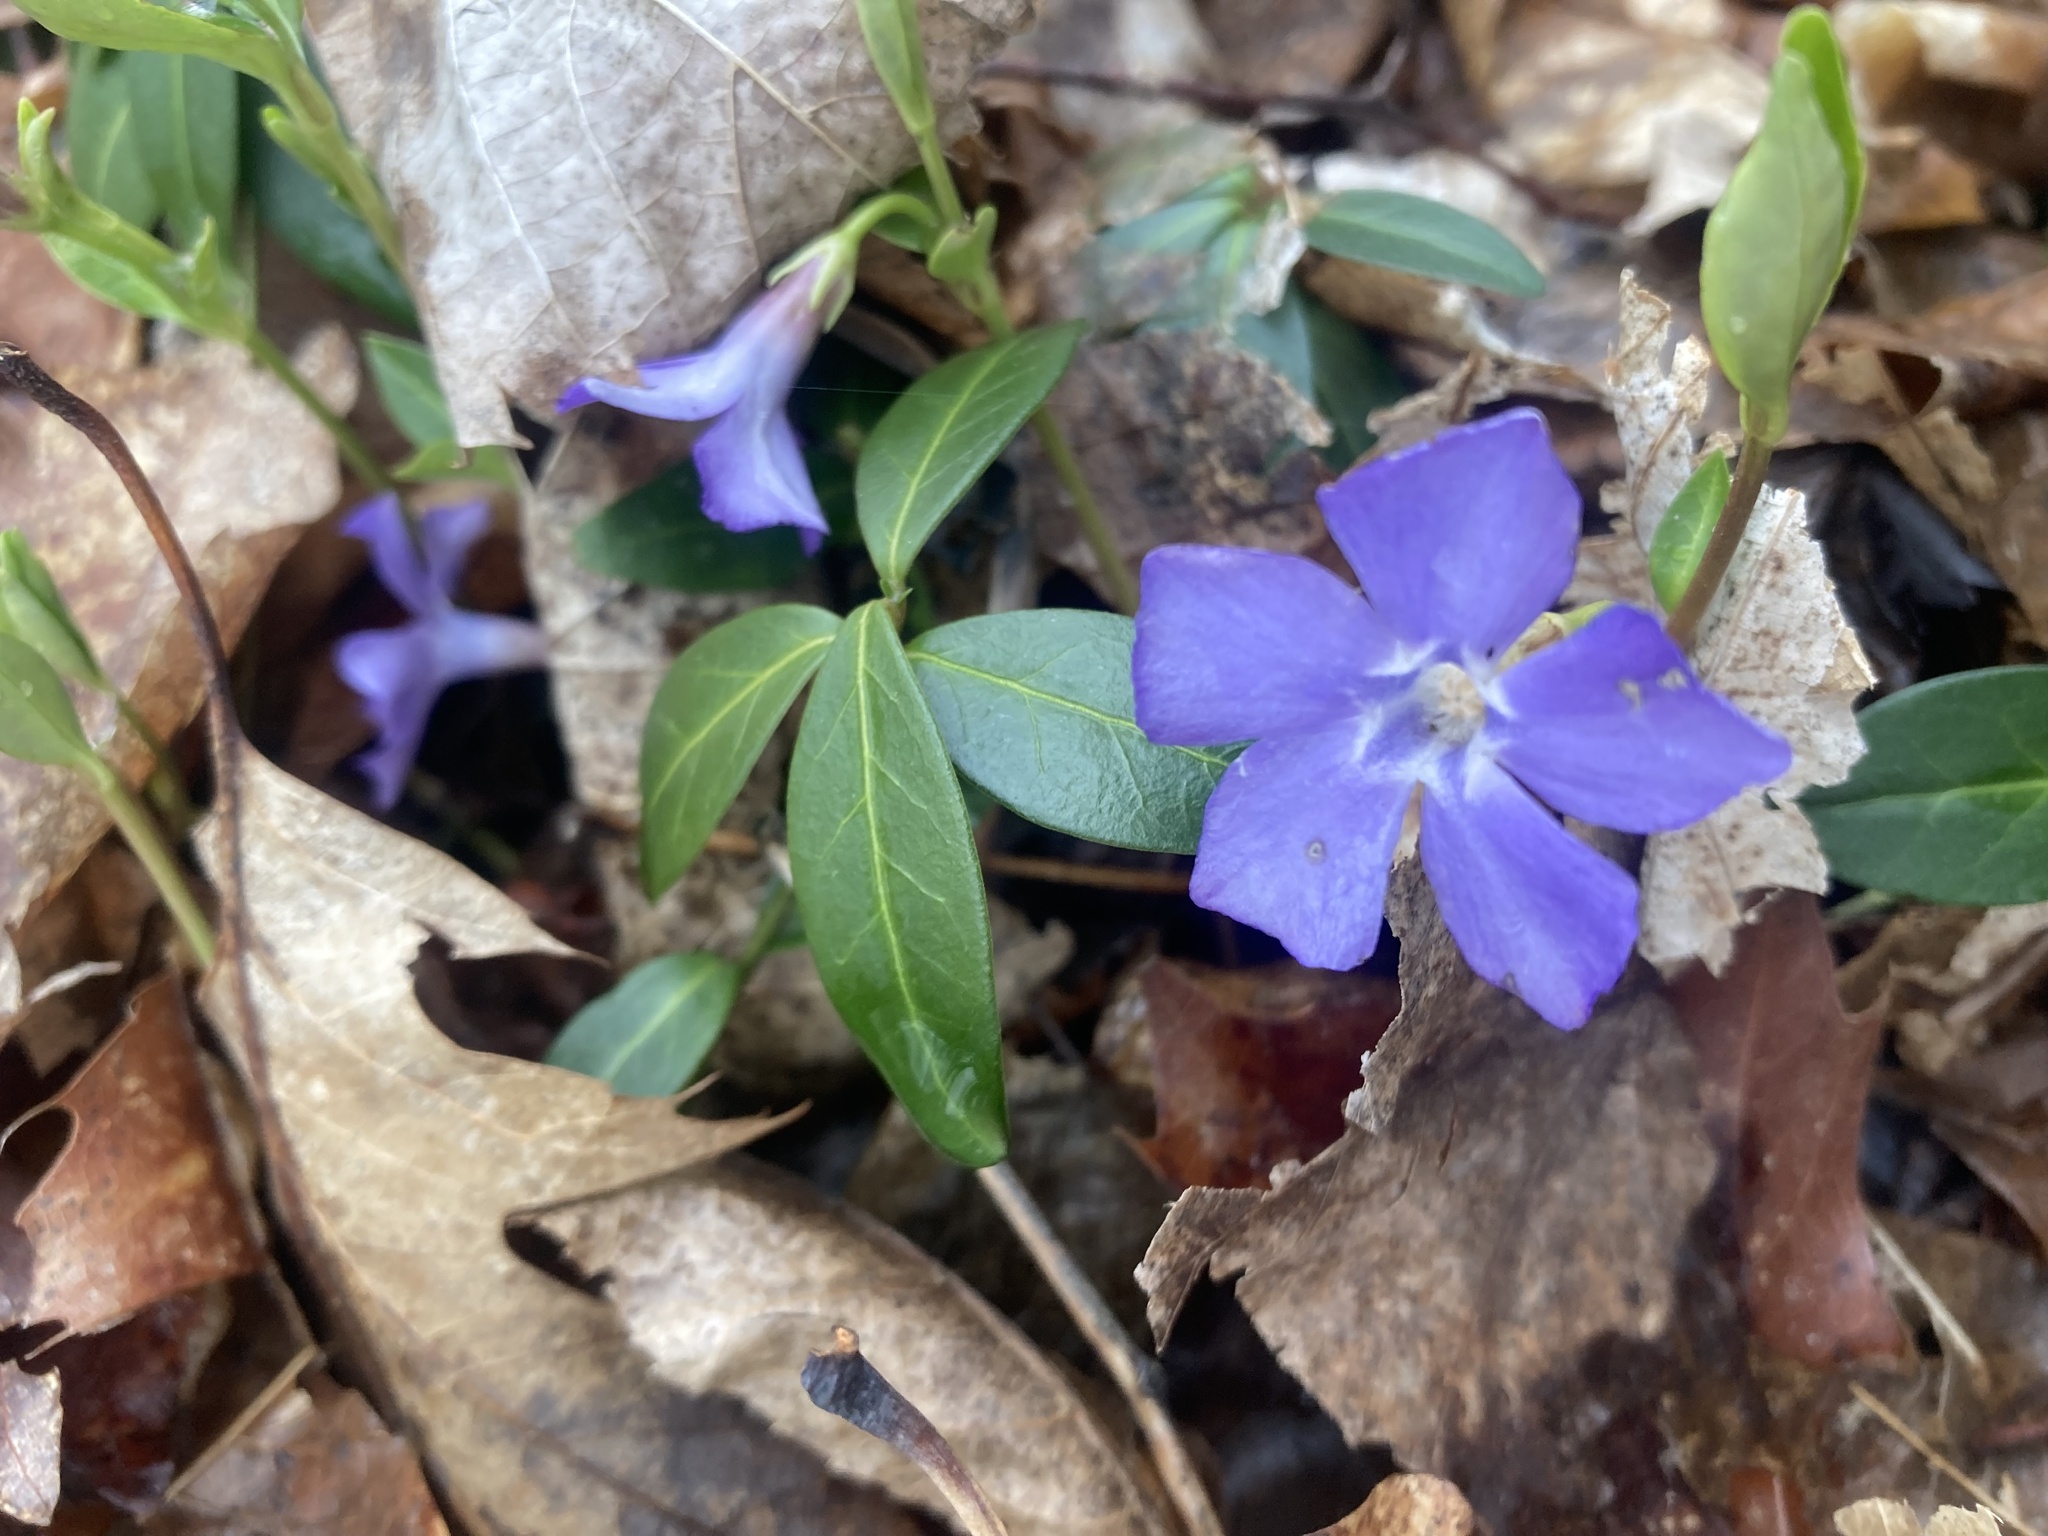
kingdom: Plantae
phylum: Tracheophyta
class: Magnoliopsida
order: Gentianales
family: Apocynaceae
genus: Vinca
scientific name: Vinca minor
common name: Lesser periwinkle
